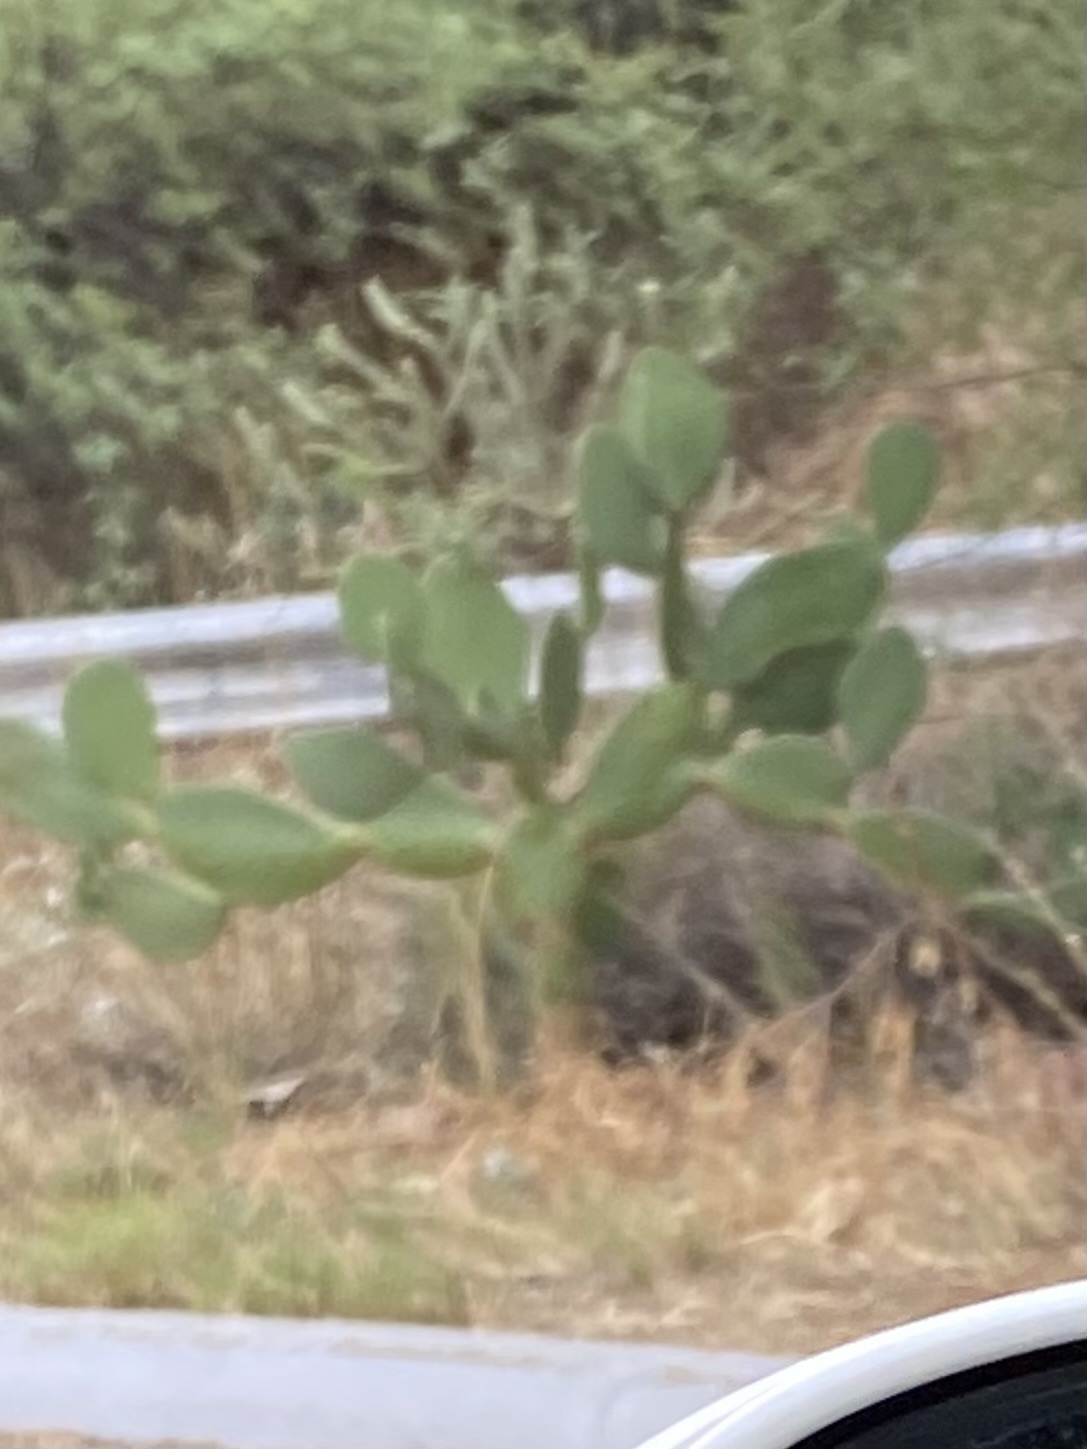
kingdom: Plantae
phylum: Tracheophyta
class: Magnoliopsida
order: Caryophyllales
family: Cactaceae
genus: Opuntia
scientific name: Opuntia
